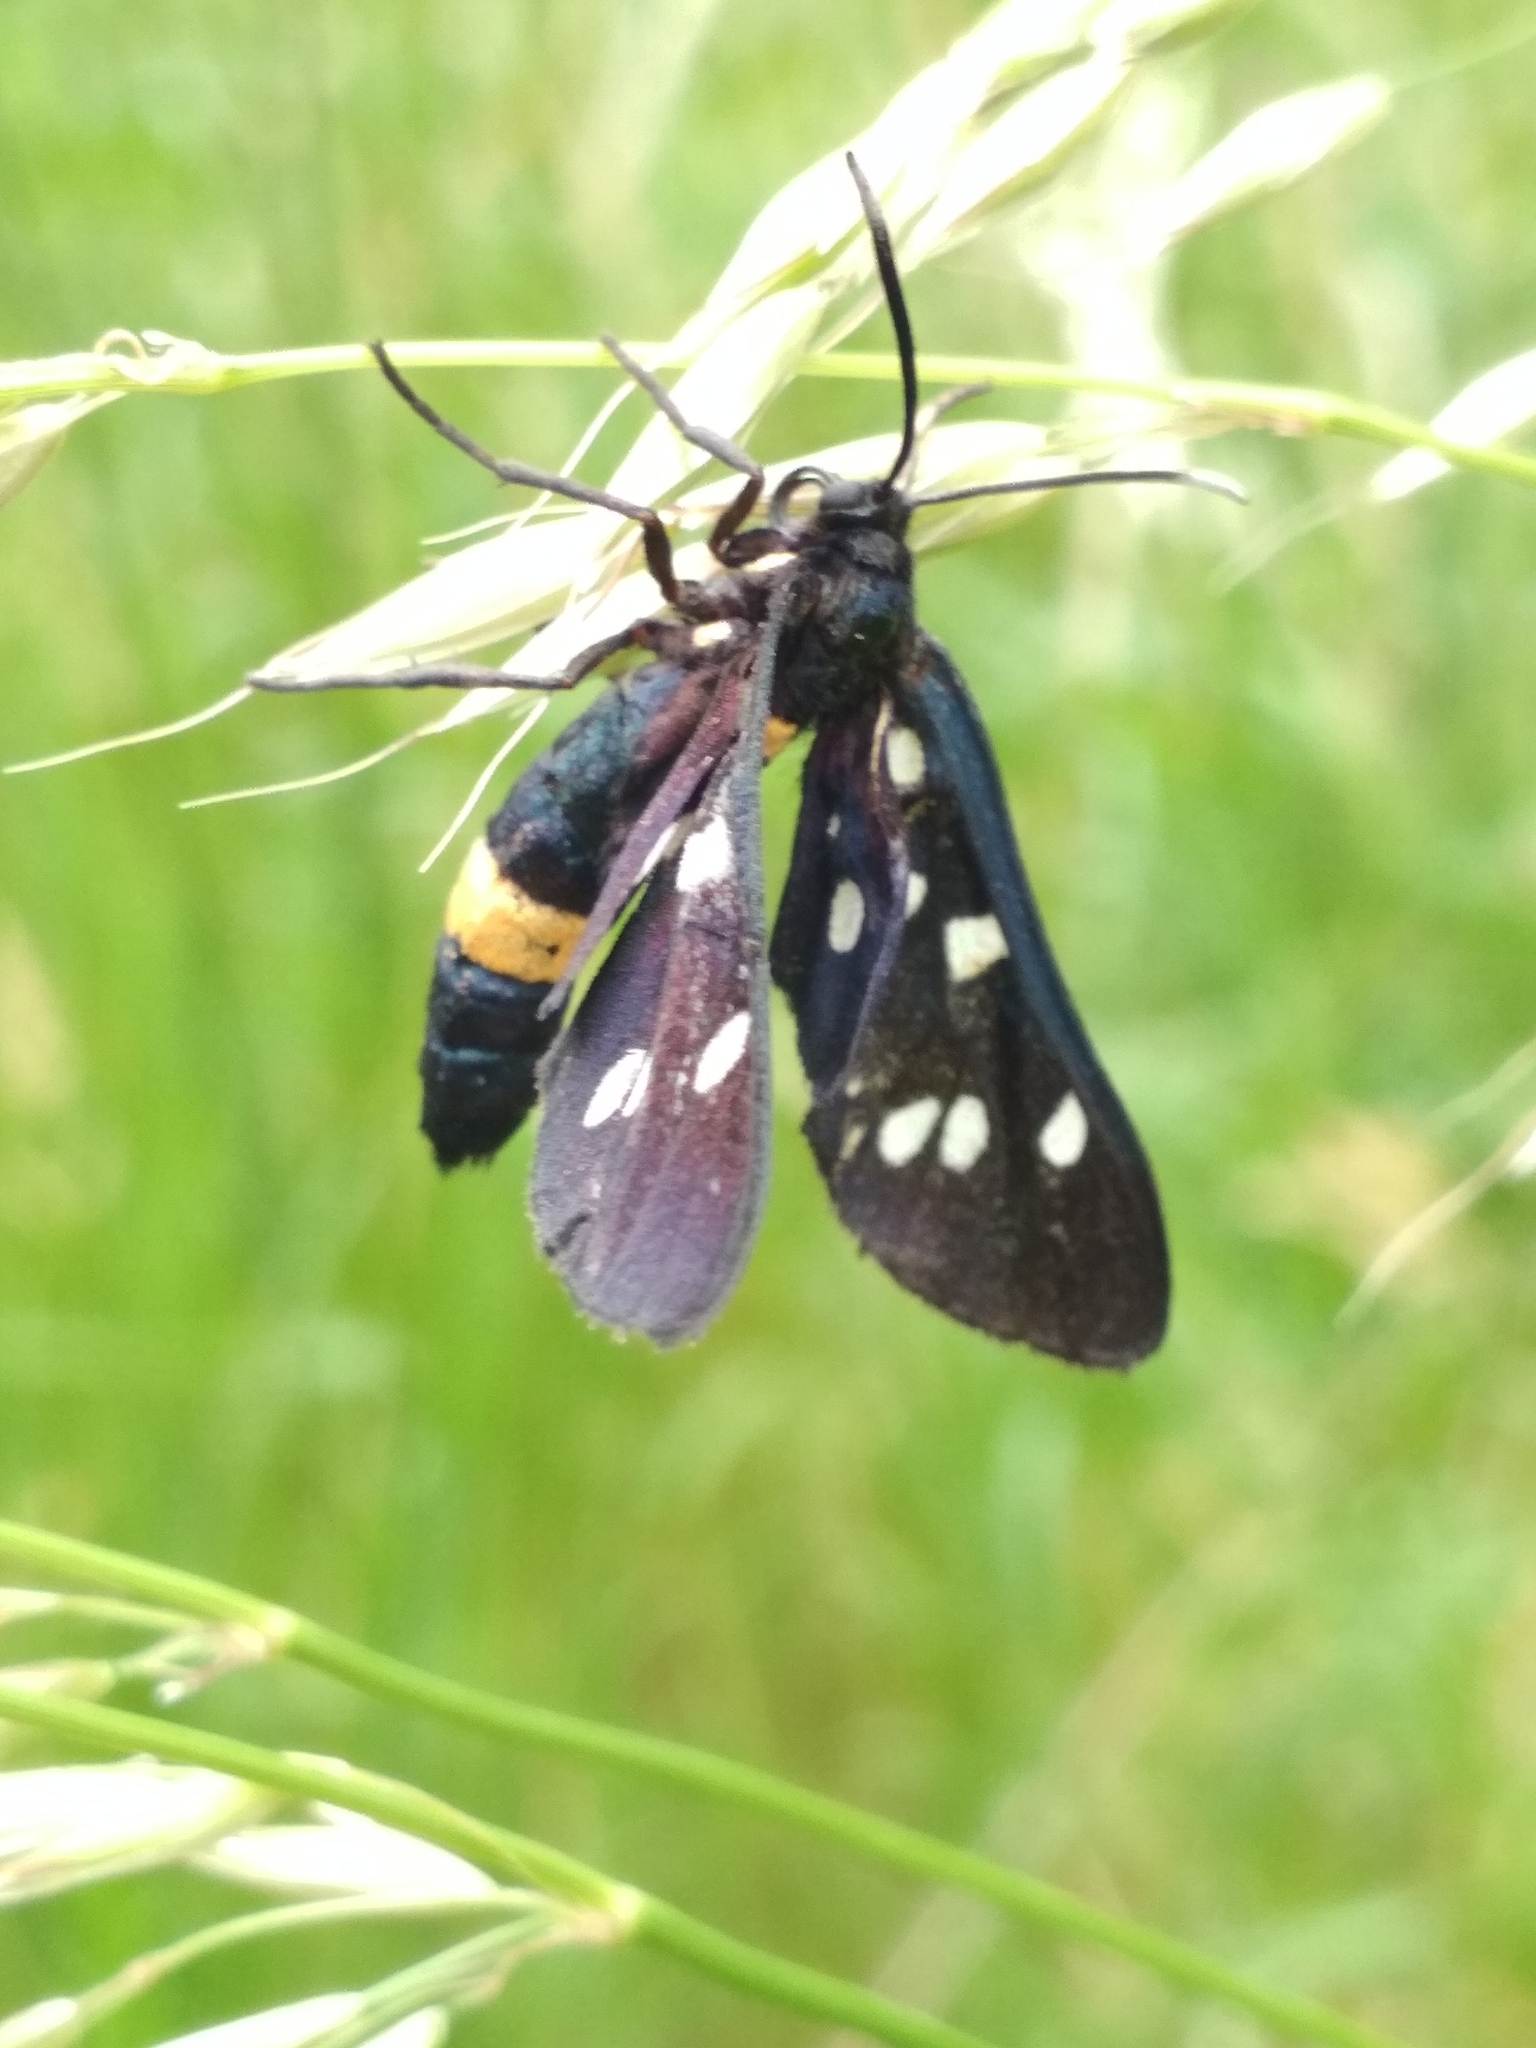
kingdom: Animalia
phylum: Arthropoda
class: Insecta
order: Lepidoptera
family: Erebidae
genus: Amata
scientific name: Amata phegea
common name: Nine-spotted
